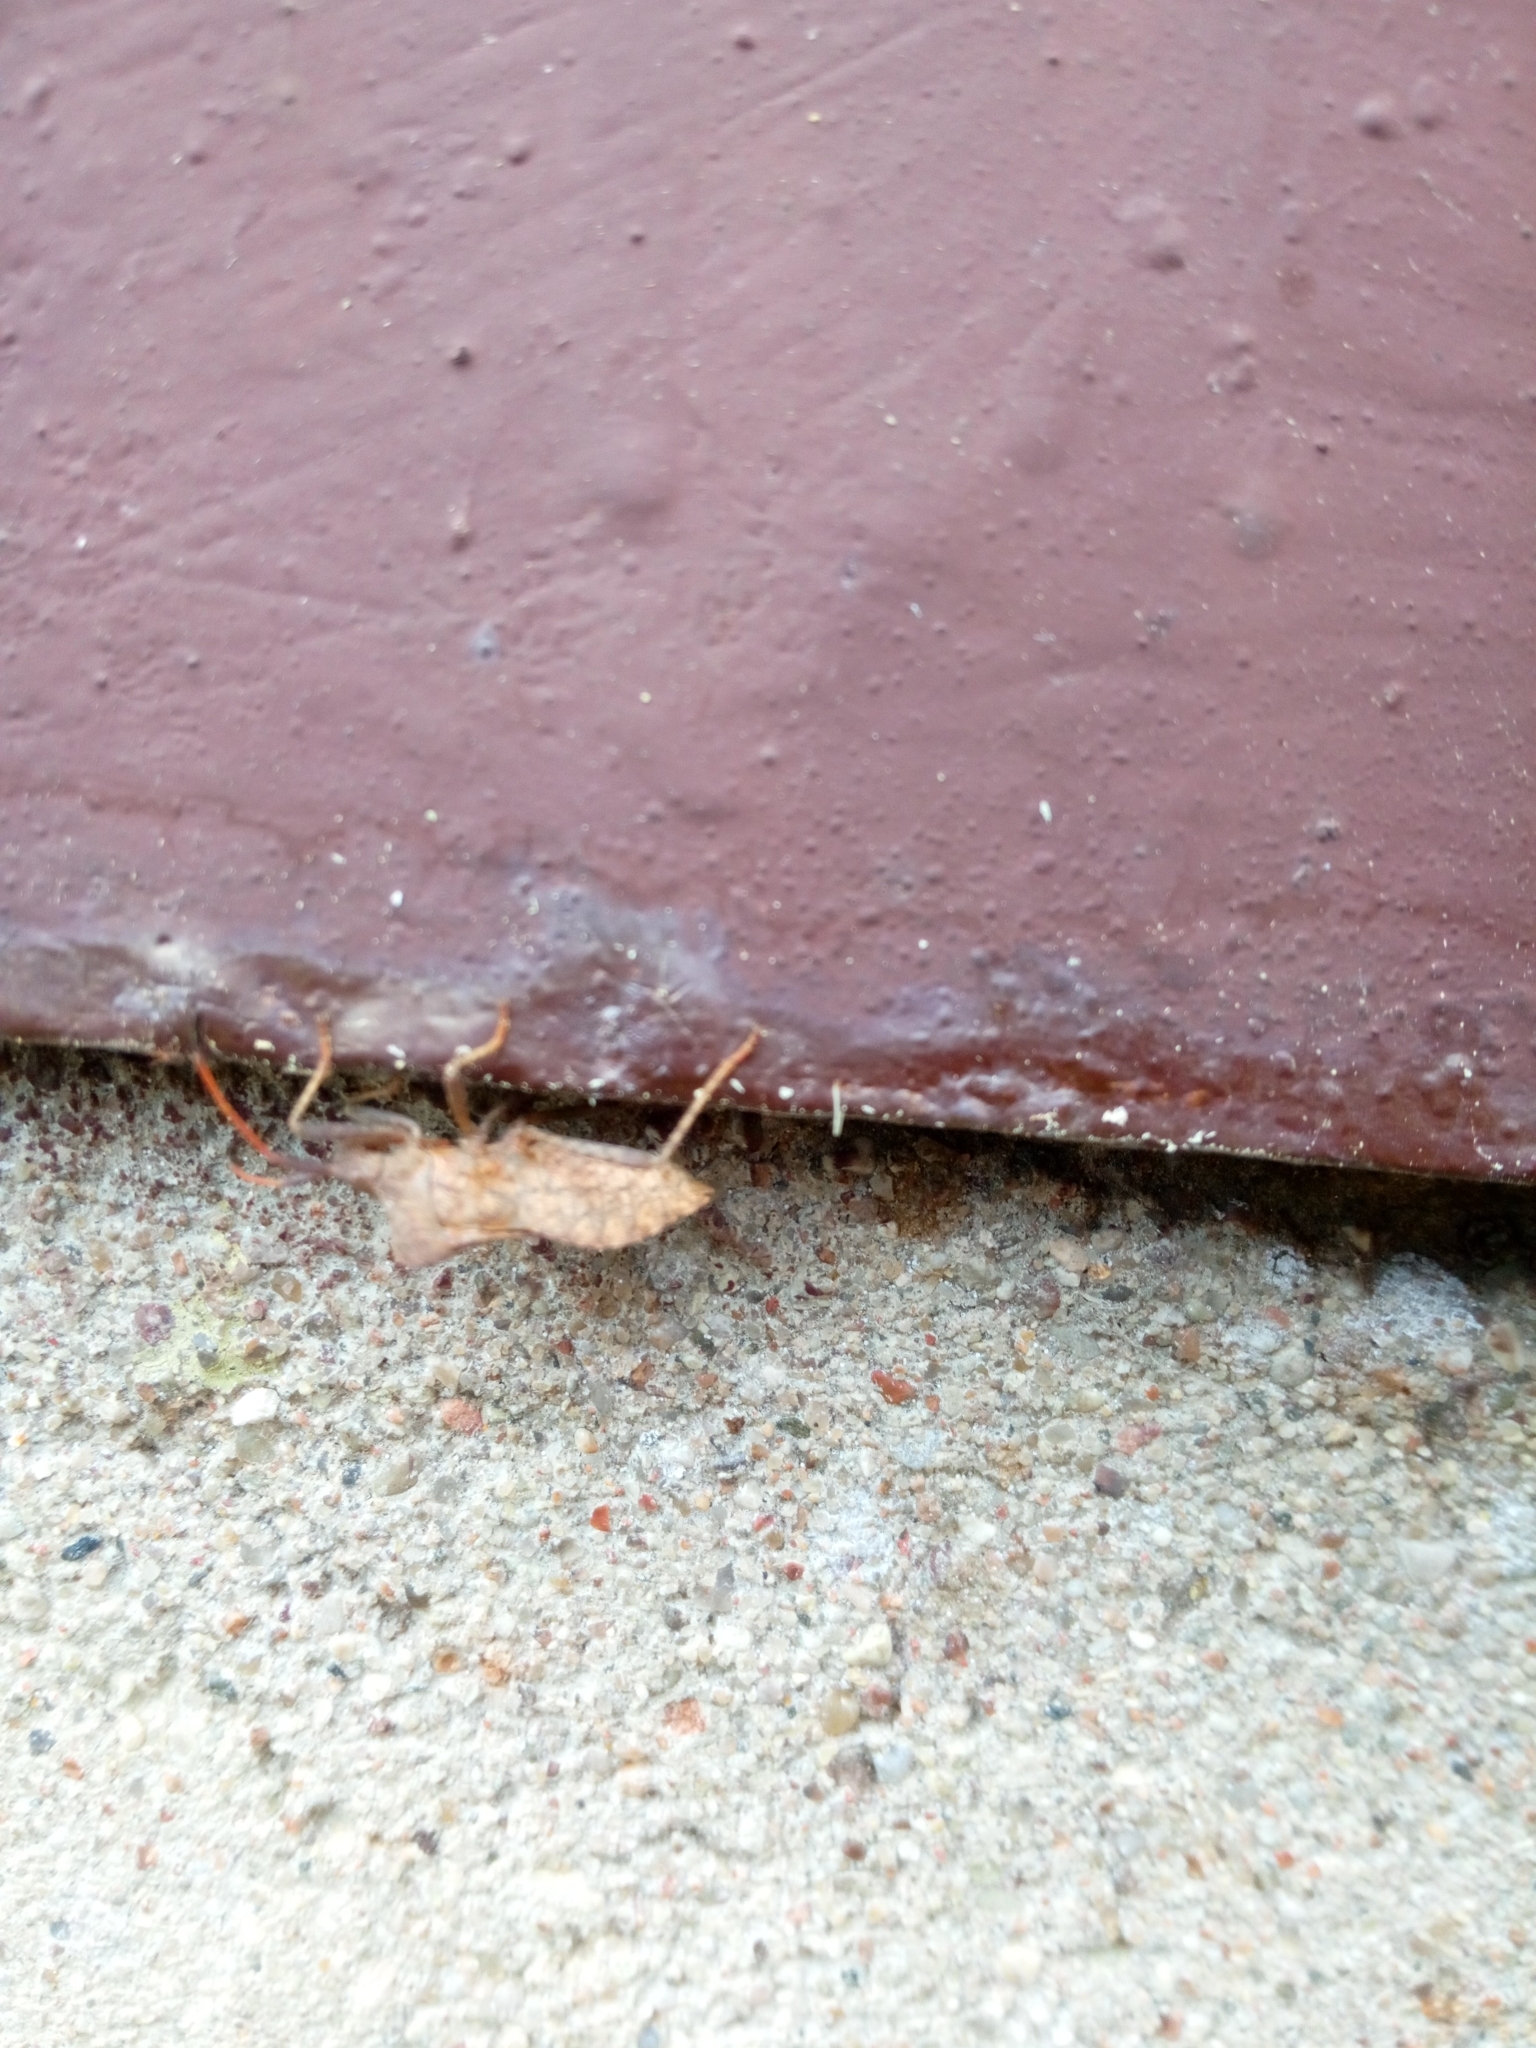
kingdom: Animalia
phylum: Arthropoda
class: Insecta
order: Hemiptera
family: Coreidae
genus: Coreus
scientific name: Coreus marginatus
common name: Dock bug
